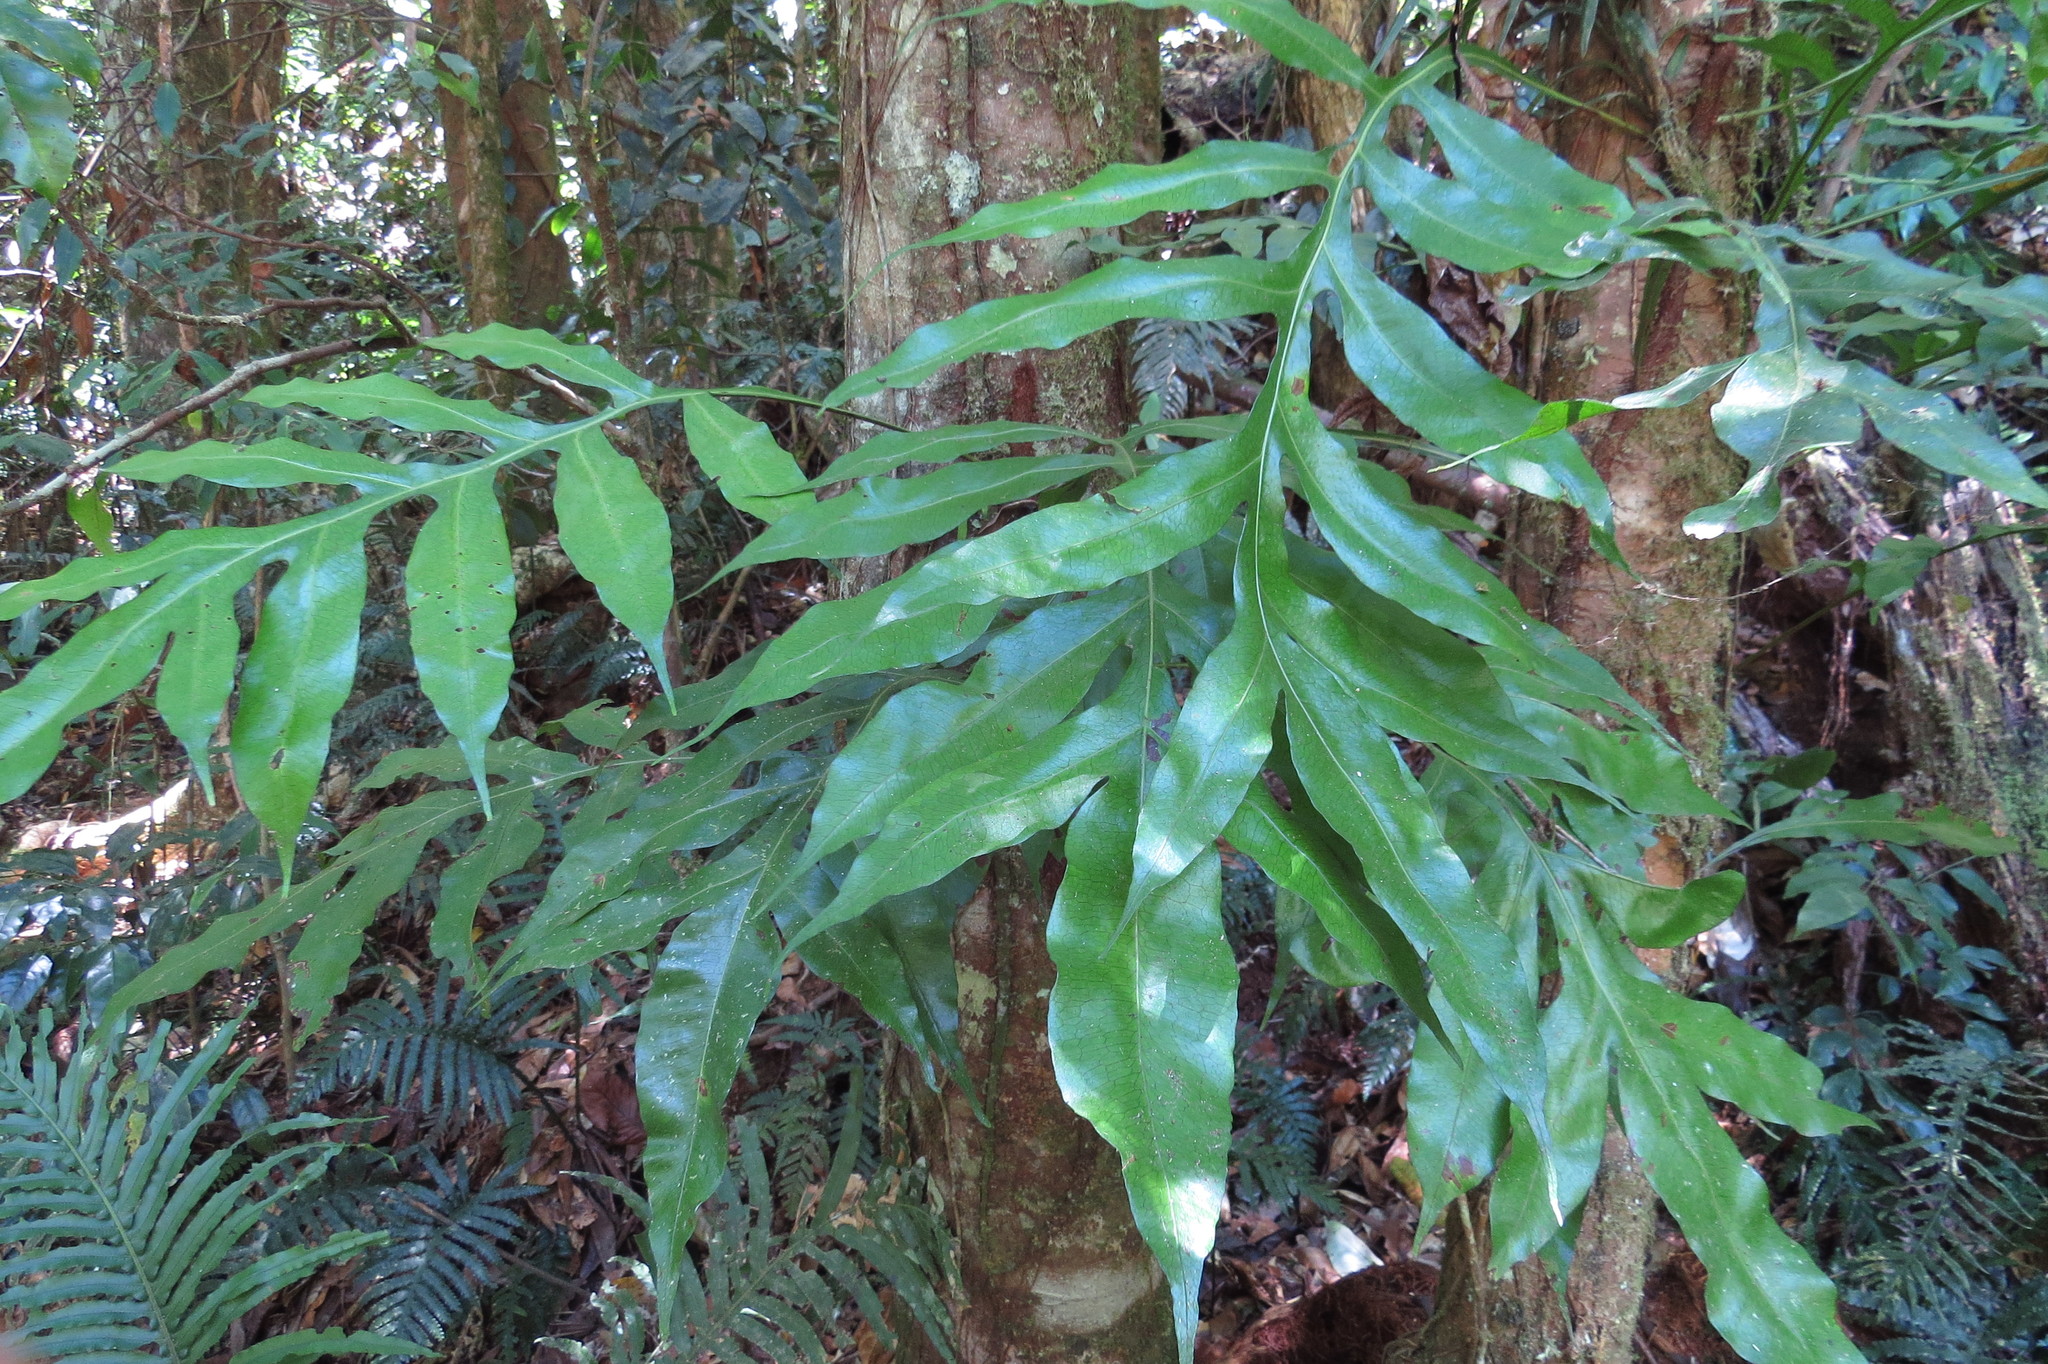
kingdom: Plantae
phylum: Tracheophyta
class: Polypodiopsida
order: Polypodiales
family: Polypodiaceae
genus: Lecanopteris
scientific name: Lecanopteris ampla
